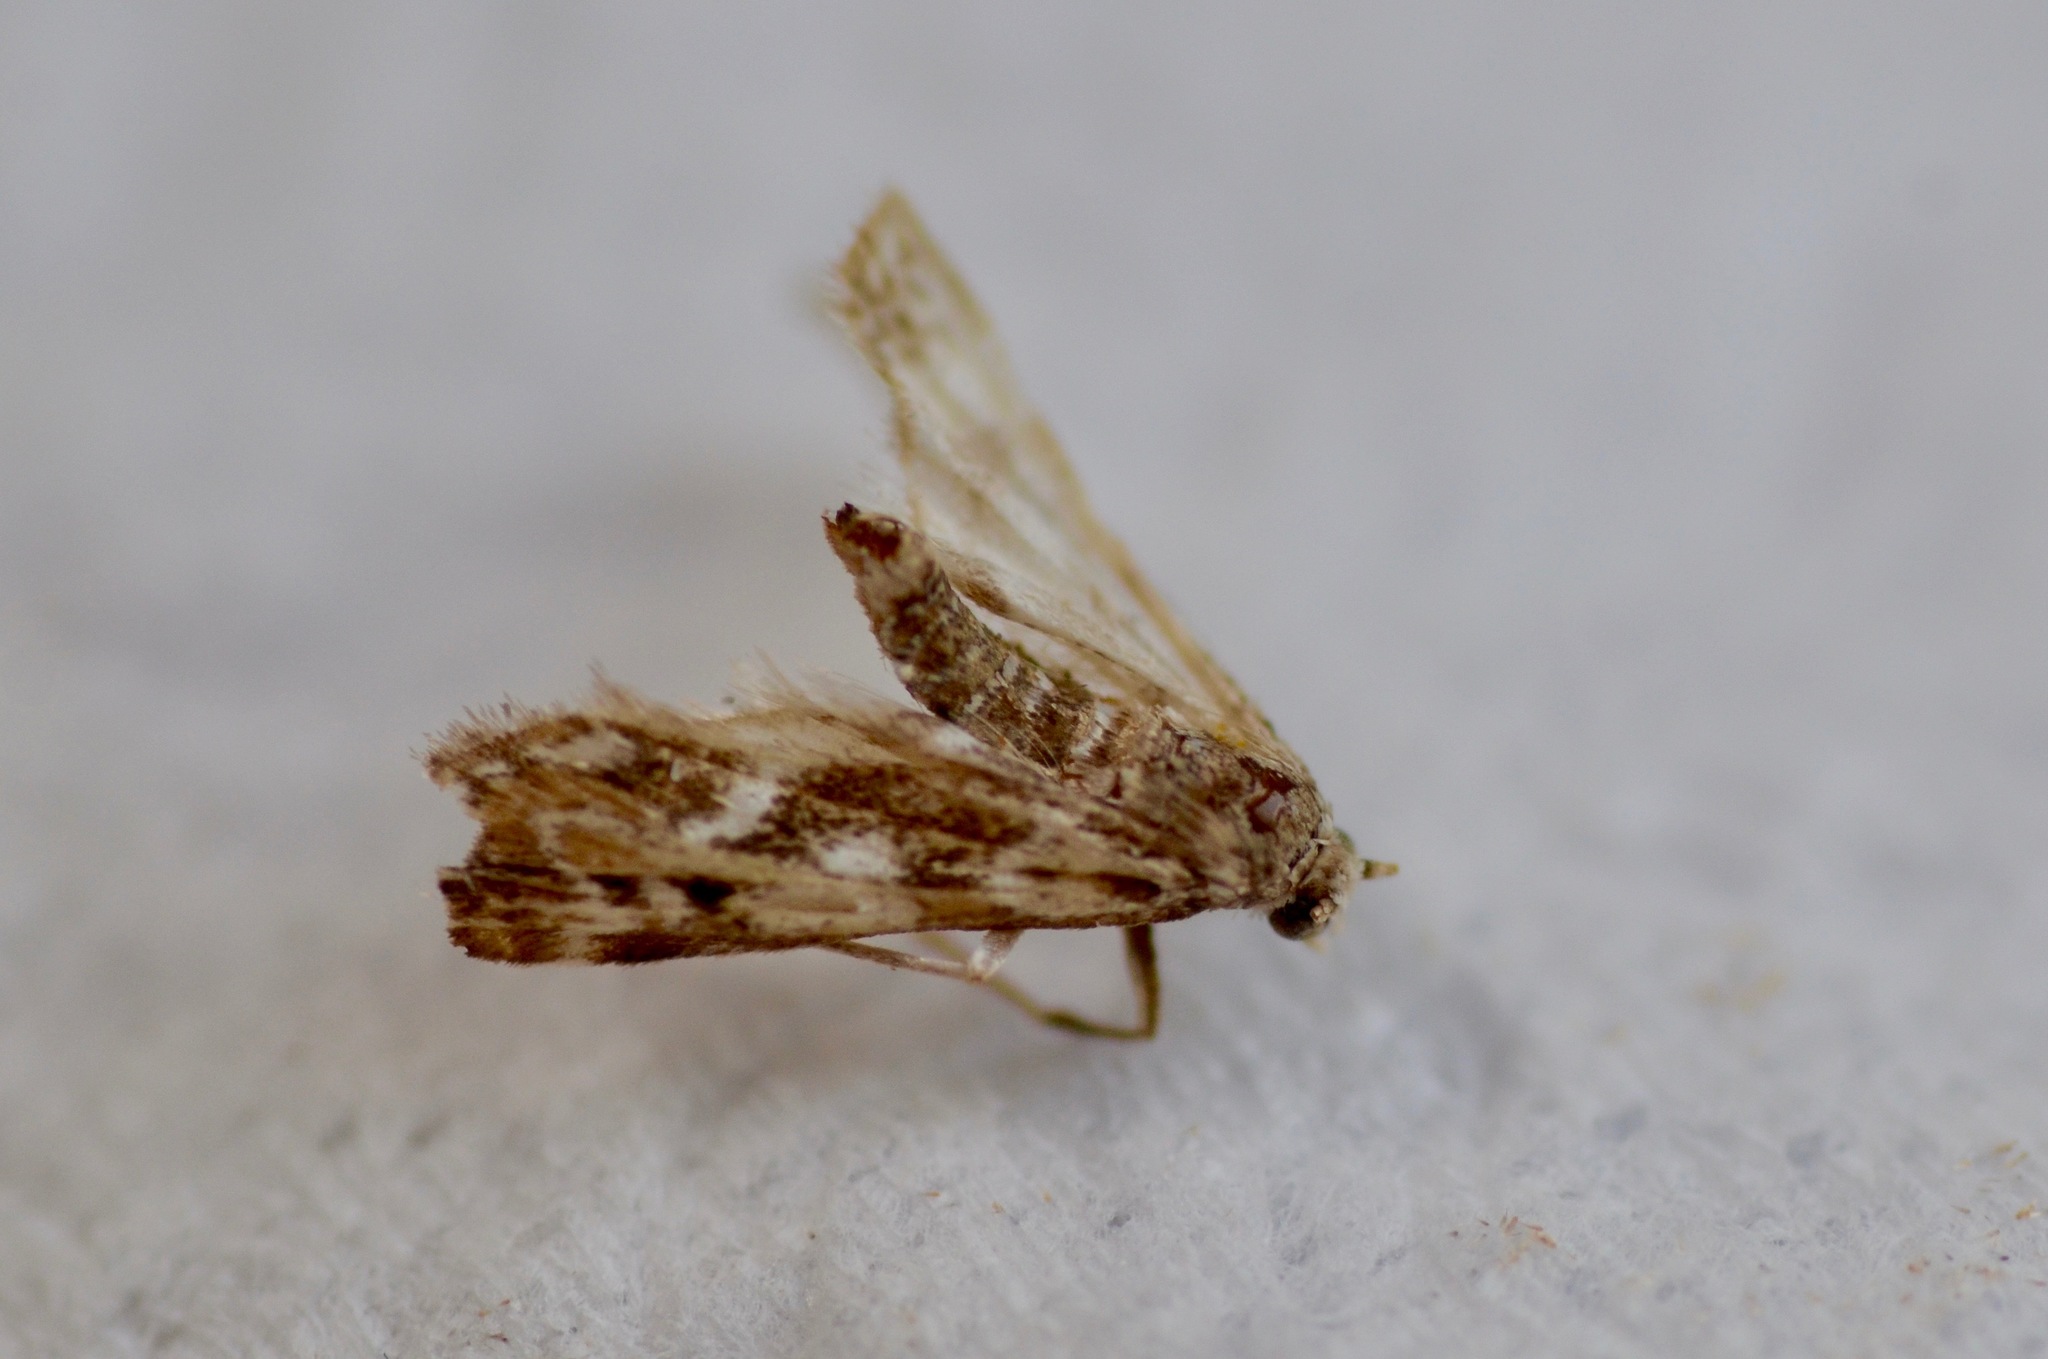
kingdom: Animalia
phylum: Arthropoda
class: Insecta
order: Lepidoptera
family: Crambidae
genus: Hygraula
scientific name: Hygraula nitens
